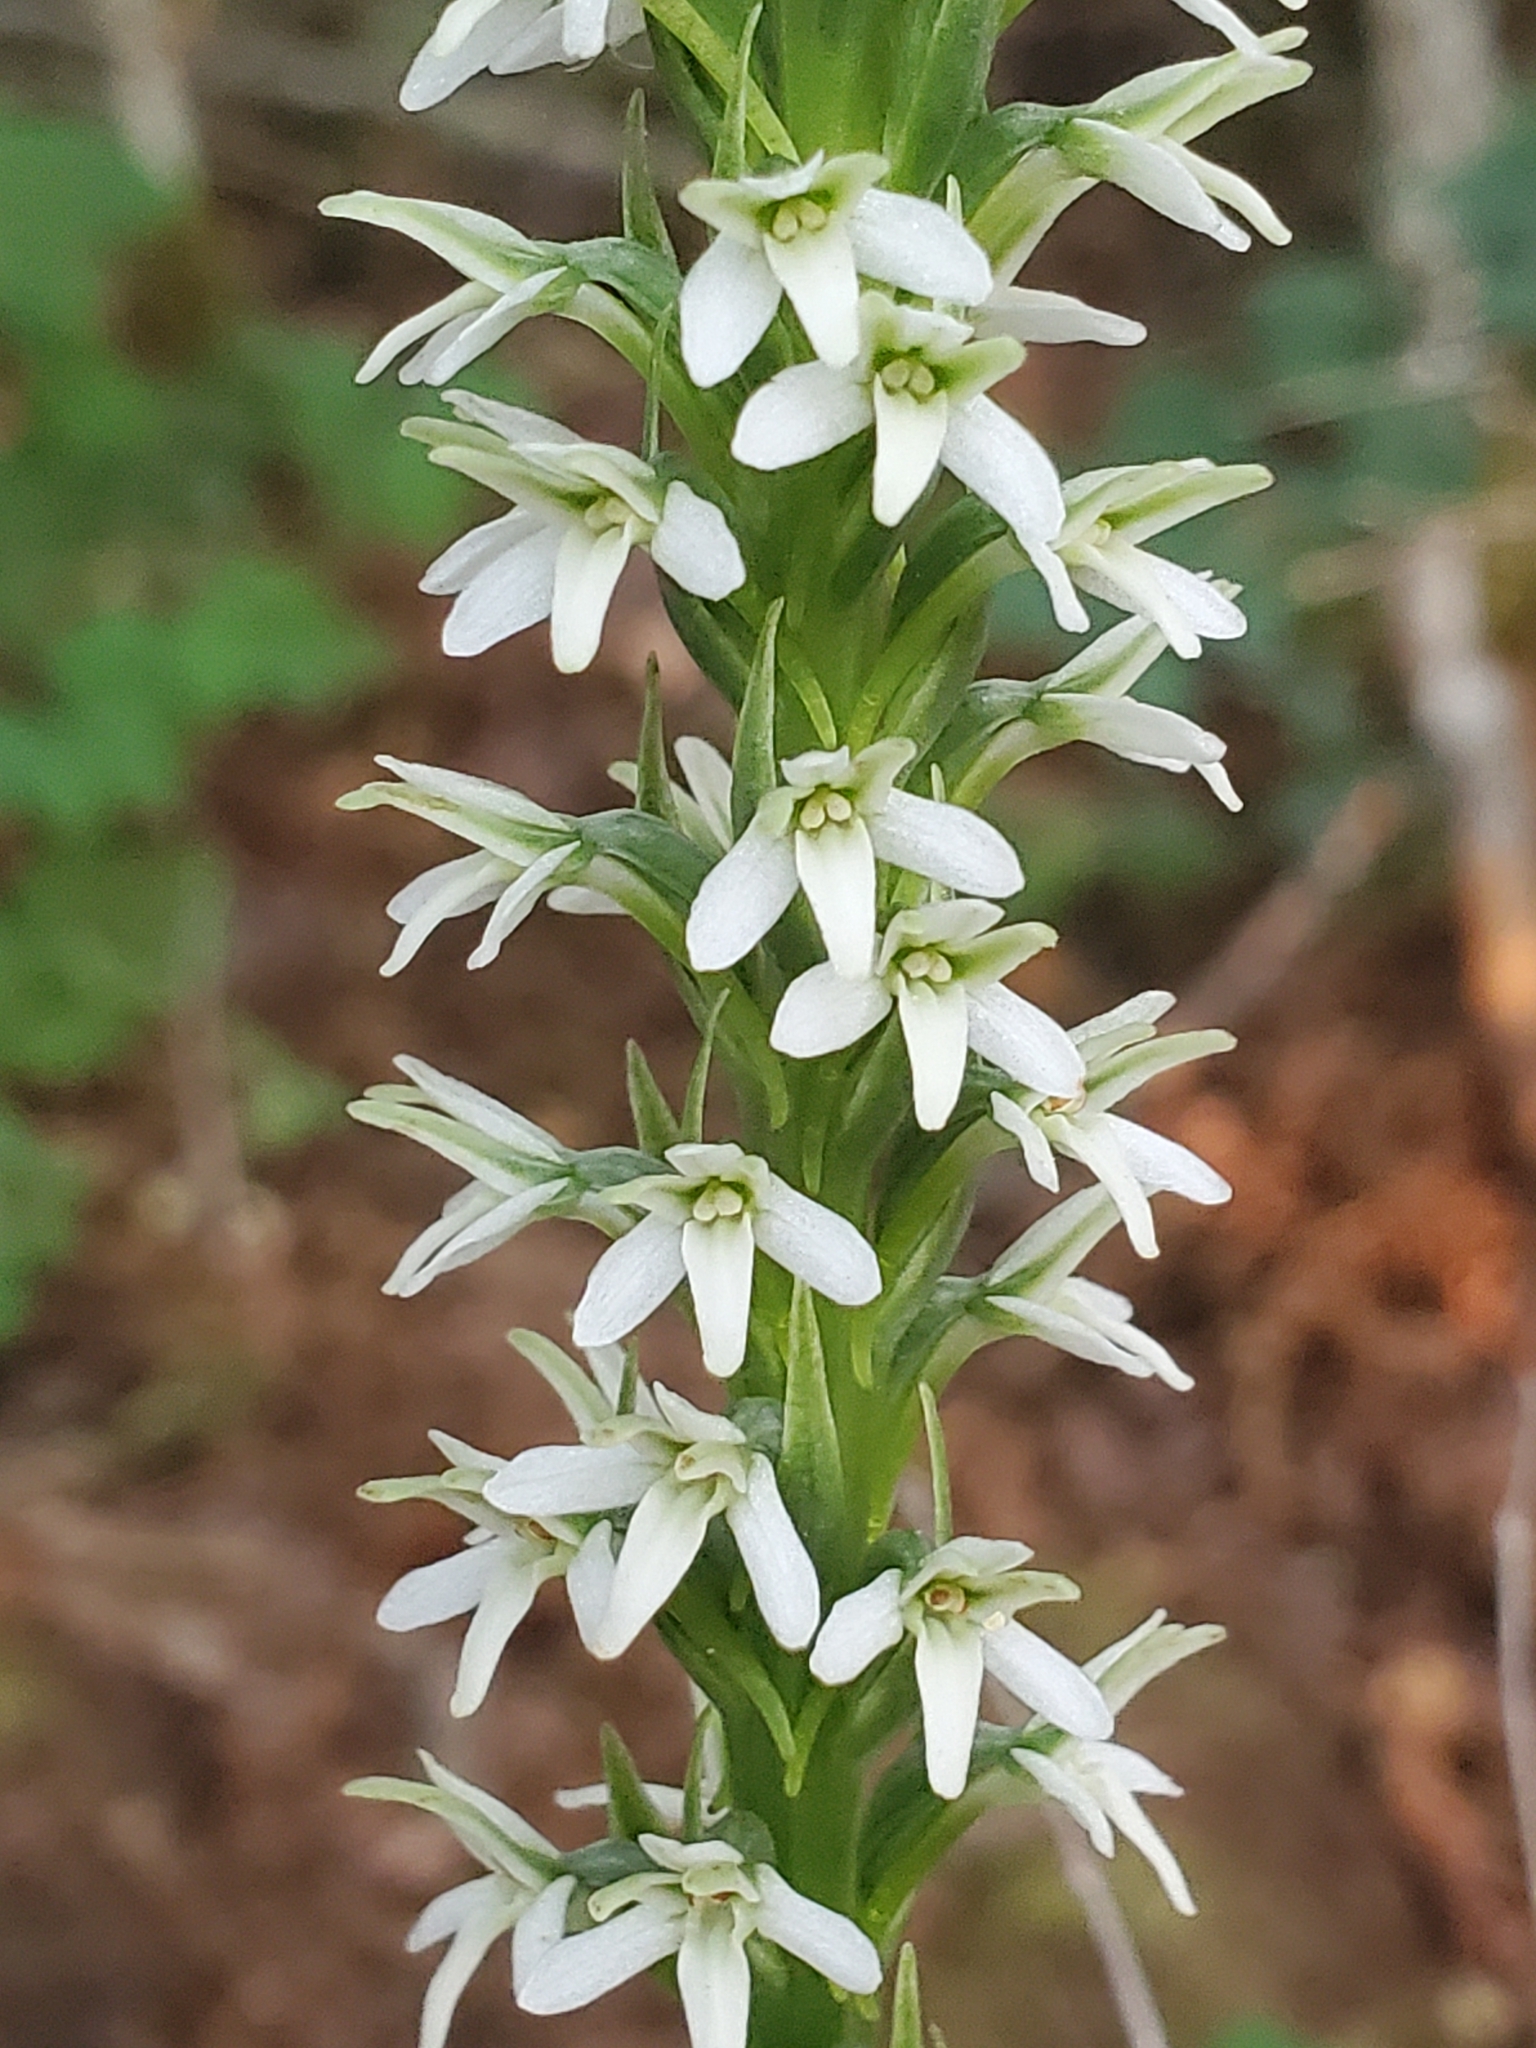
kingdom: Plantae
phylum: Tracheophyta
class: Liliopsida
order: Asparagales
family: Orchidaceae
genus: Platanthera
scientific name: Platanthera elegans
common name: Coast piperia
